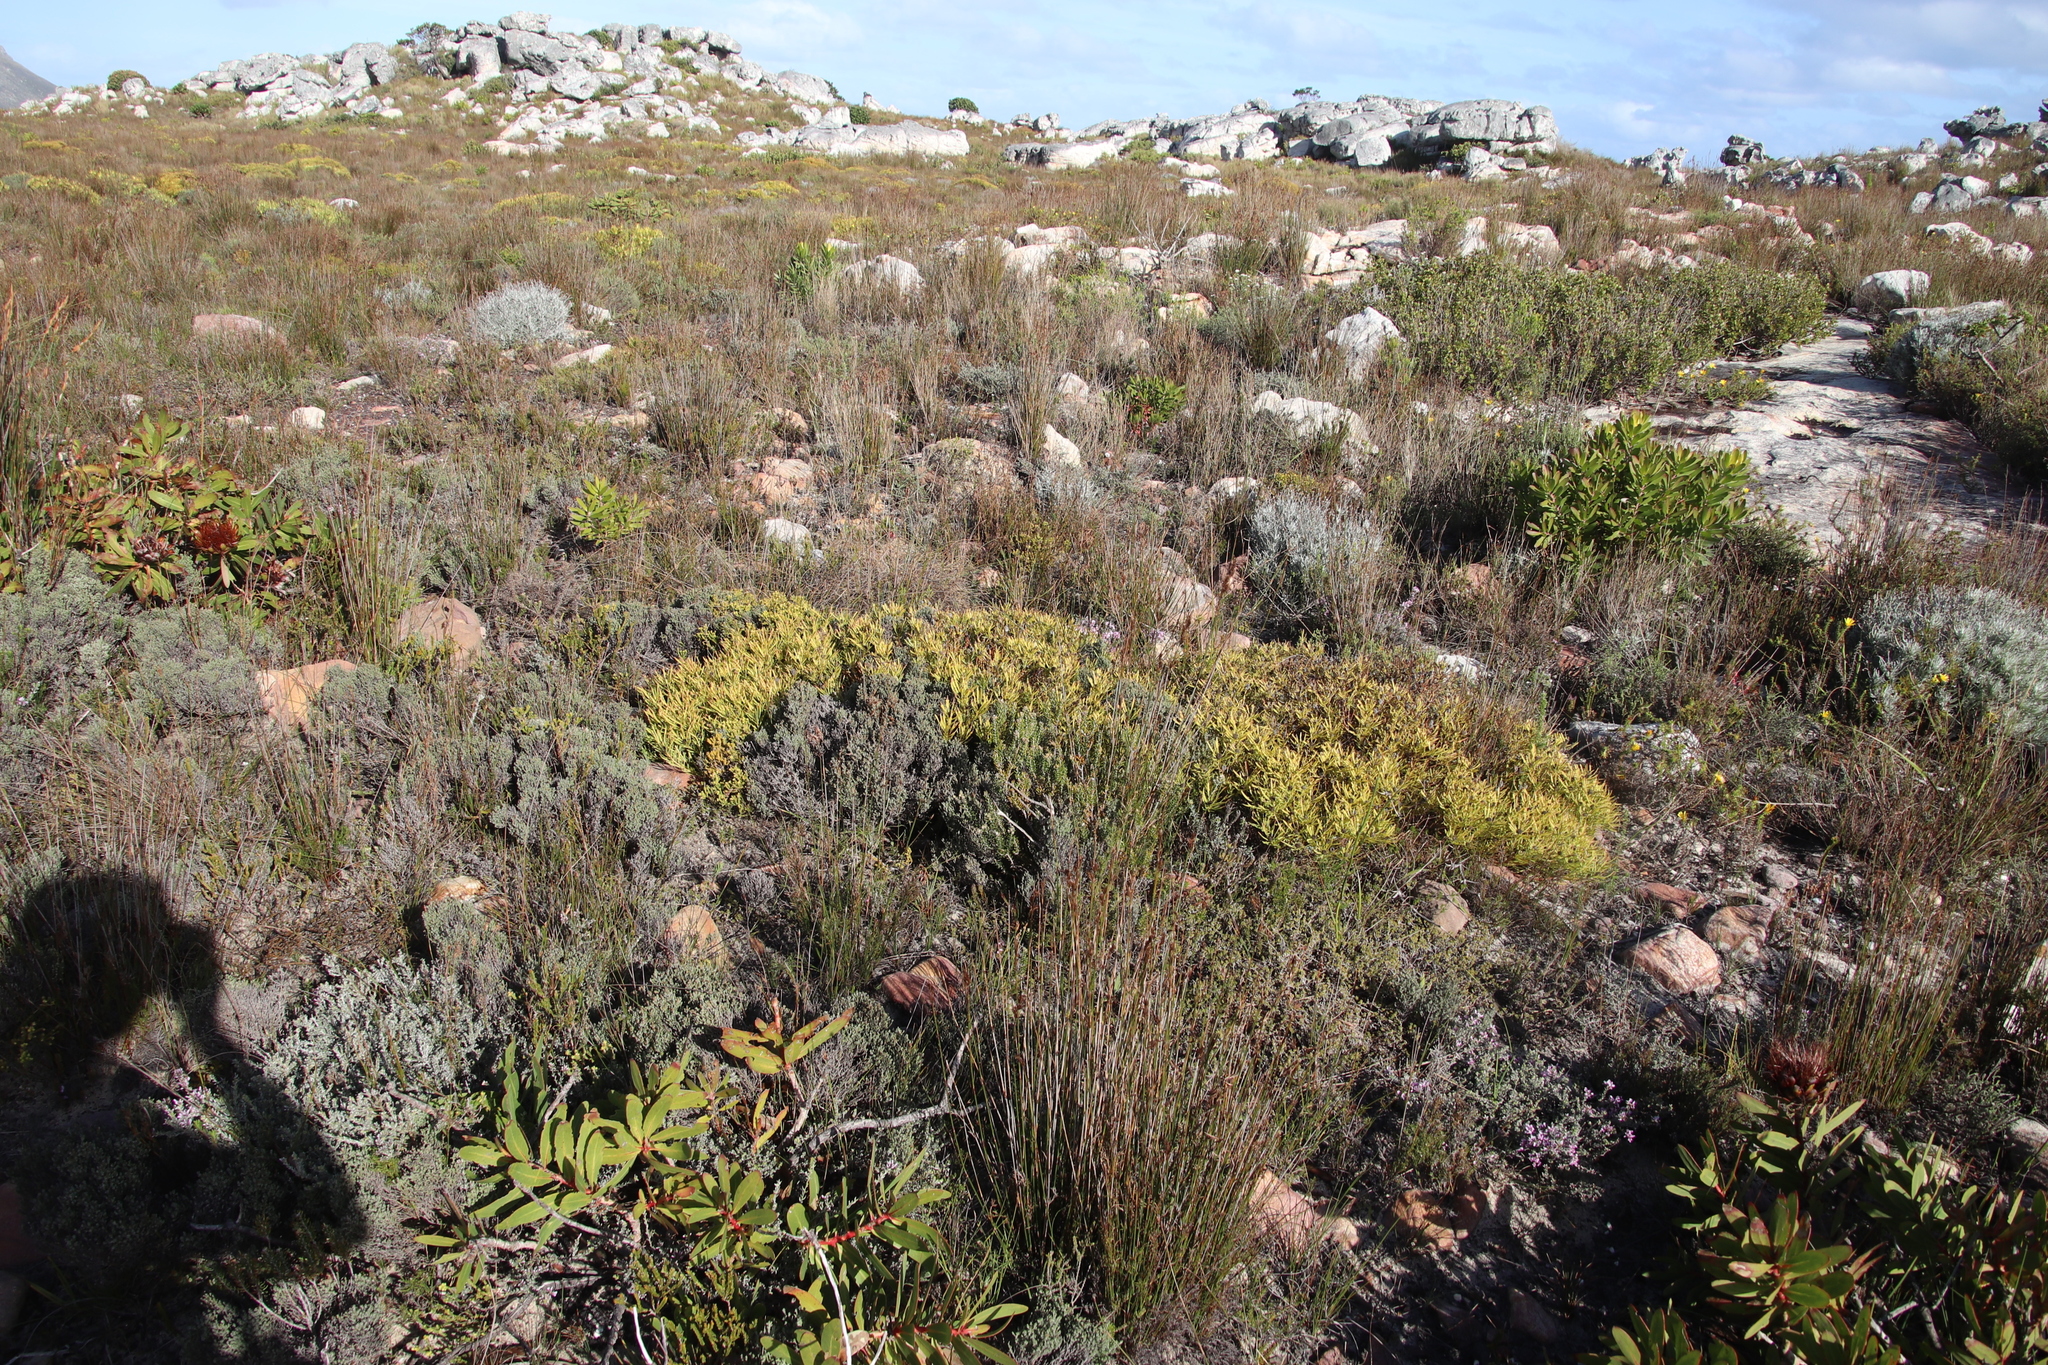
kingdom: Plantae
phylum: Tracheophyta
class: Magnoliopsida
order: Proteales
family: Proteaceae
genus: Leucadendron
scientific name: Leucadendron salignum
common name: Common sunshine conebush
